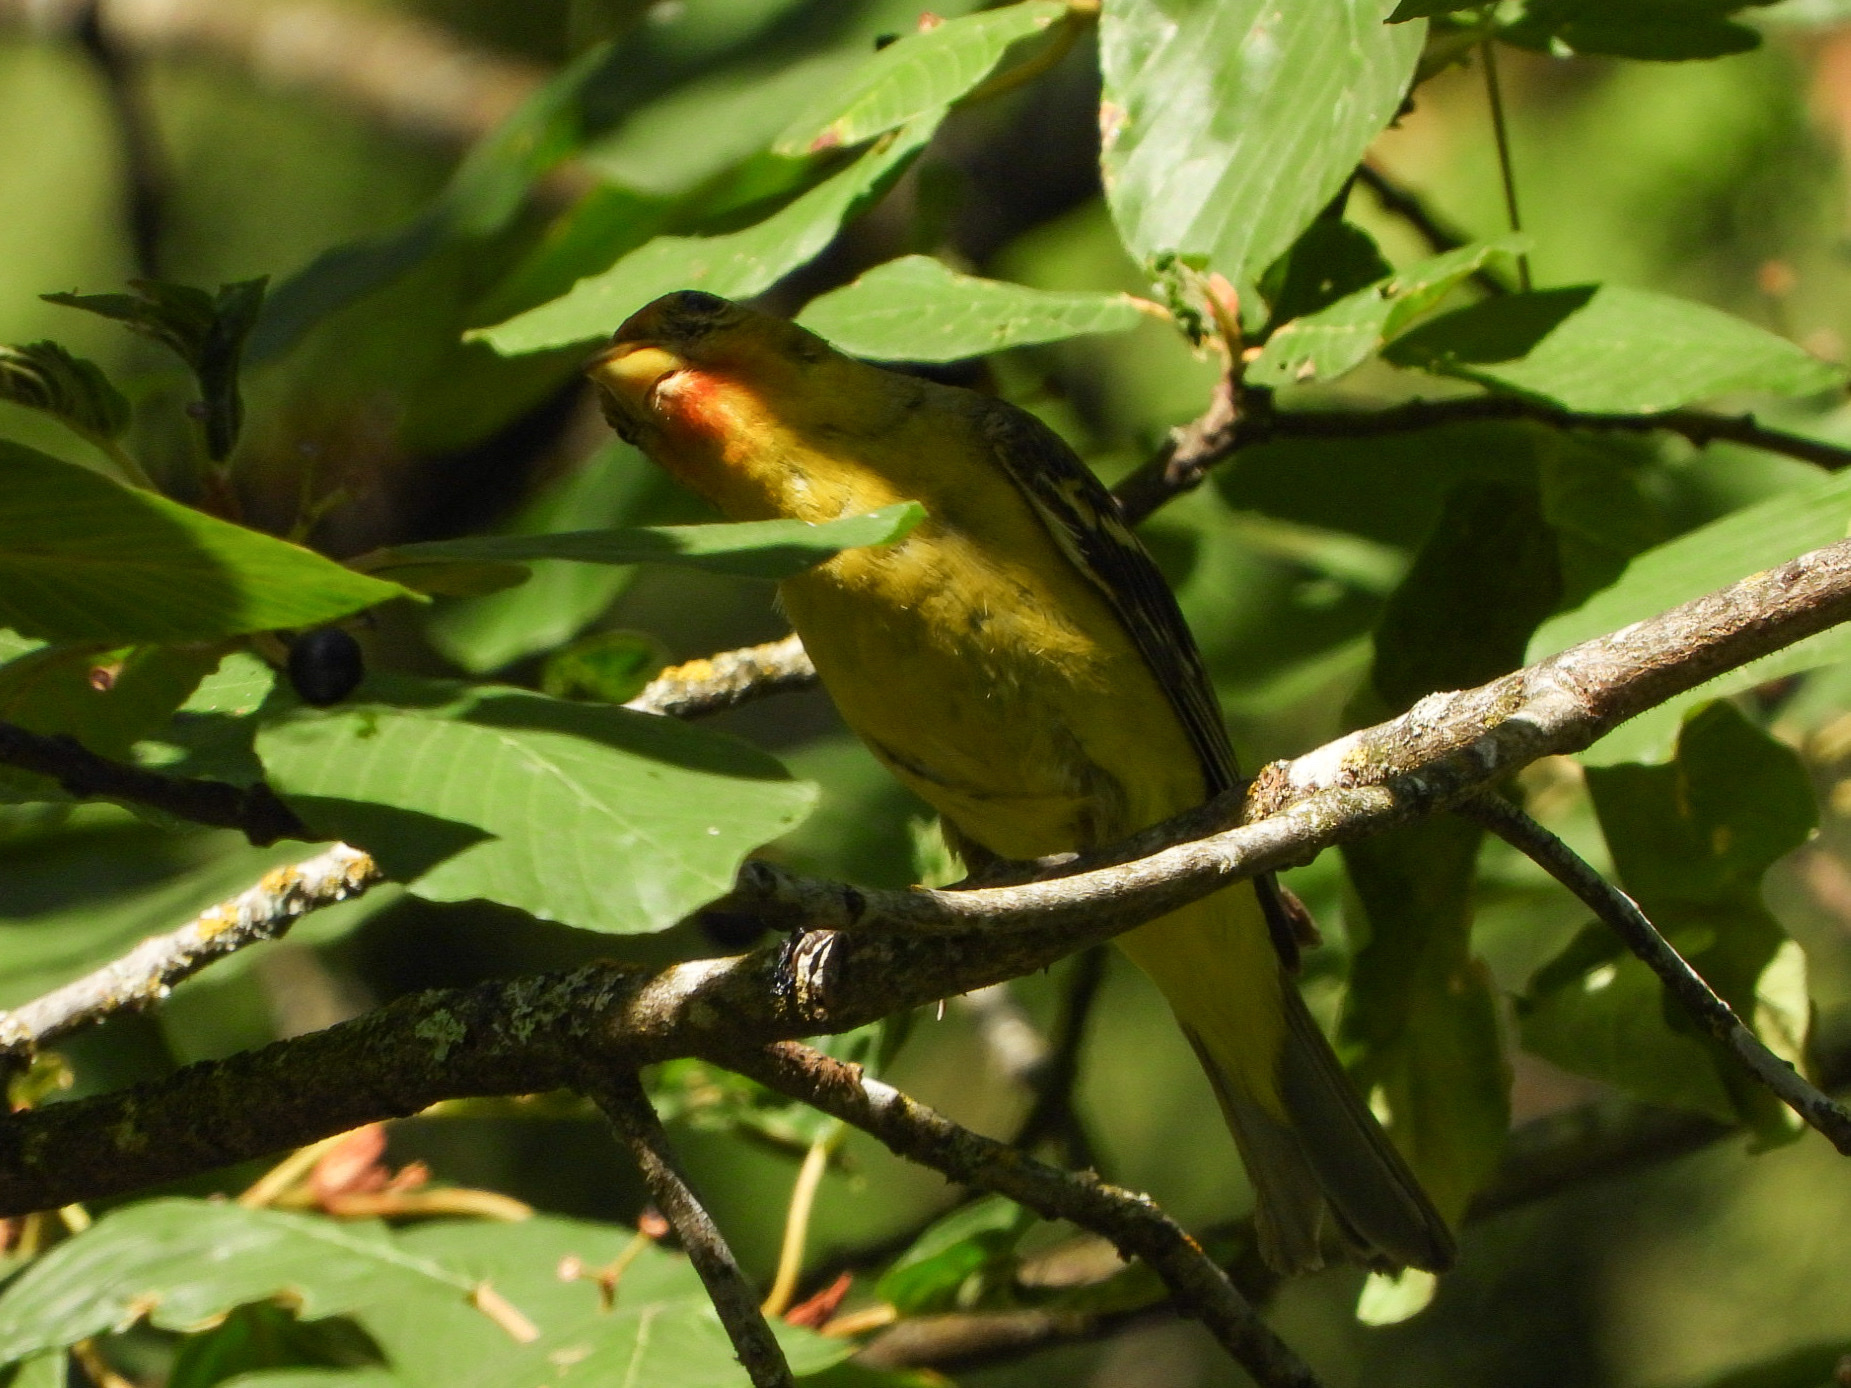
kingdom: Animalia
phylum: Chordata
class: Aves
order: Passeriformes
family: Cardinalidae
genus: Piranga
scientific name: Piranga ludoviciana
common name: Western tanager
